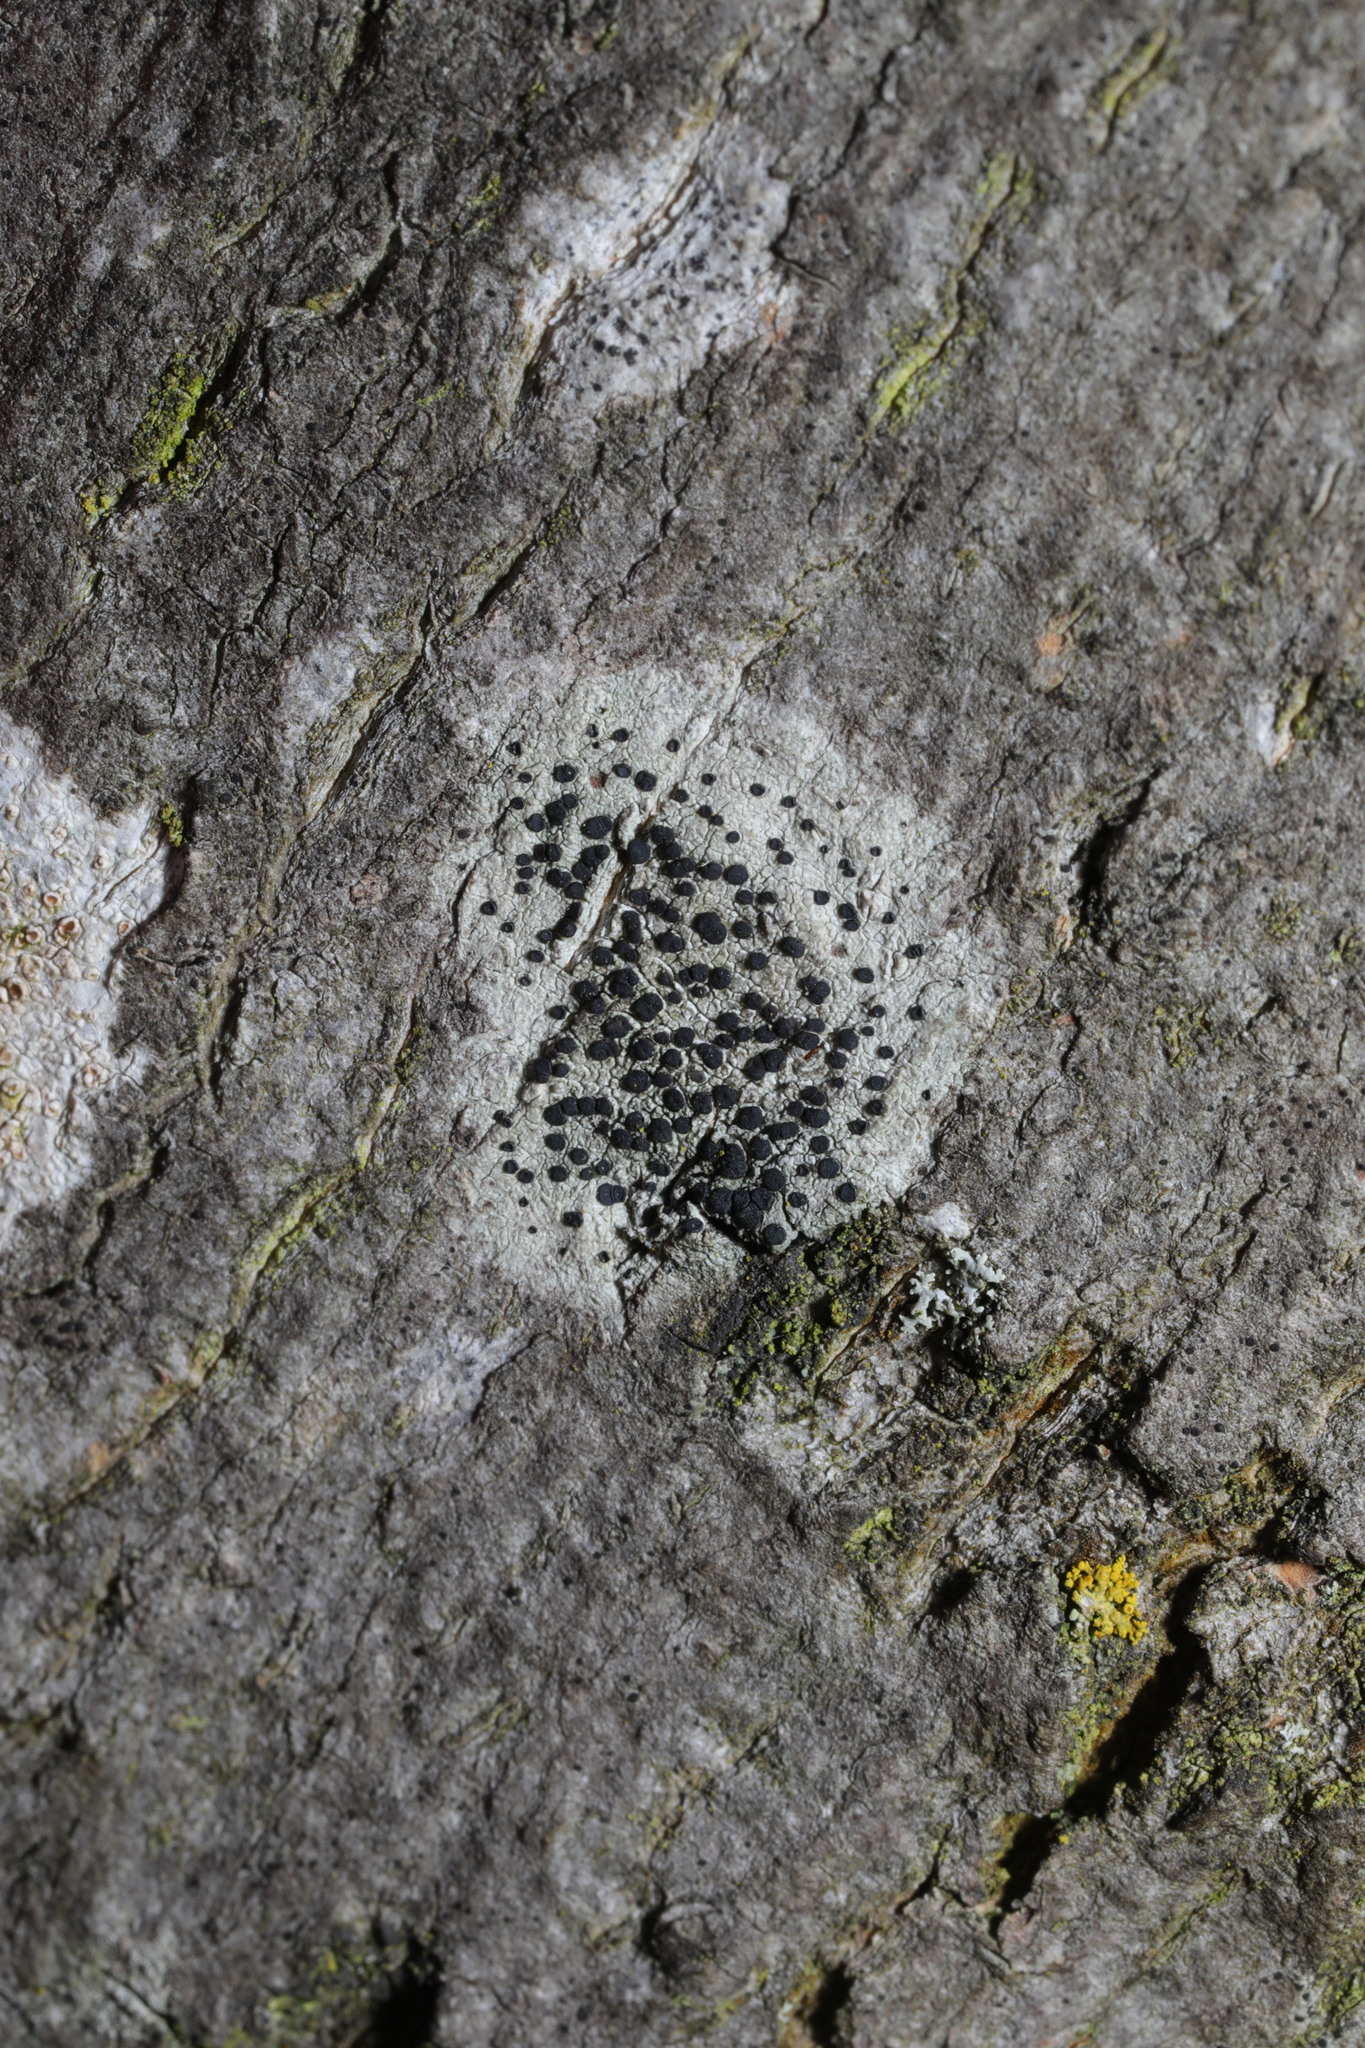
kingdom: Fungi
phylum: Ascomycota
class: Lecanoromycetes
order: Lecanorales
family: Lecanoraceae
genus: Lecidella
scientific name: Lecidella elaeochroma
